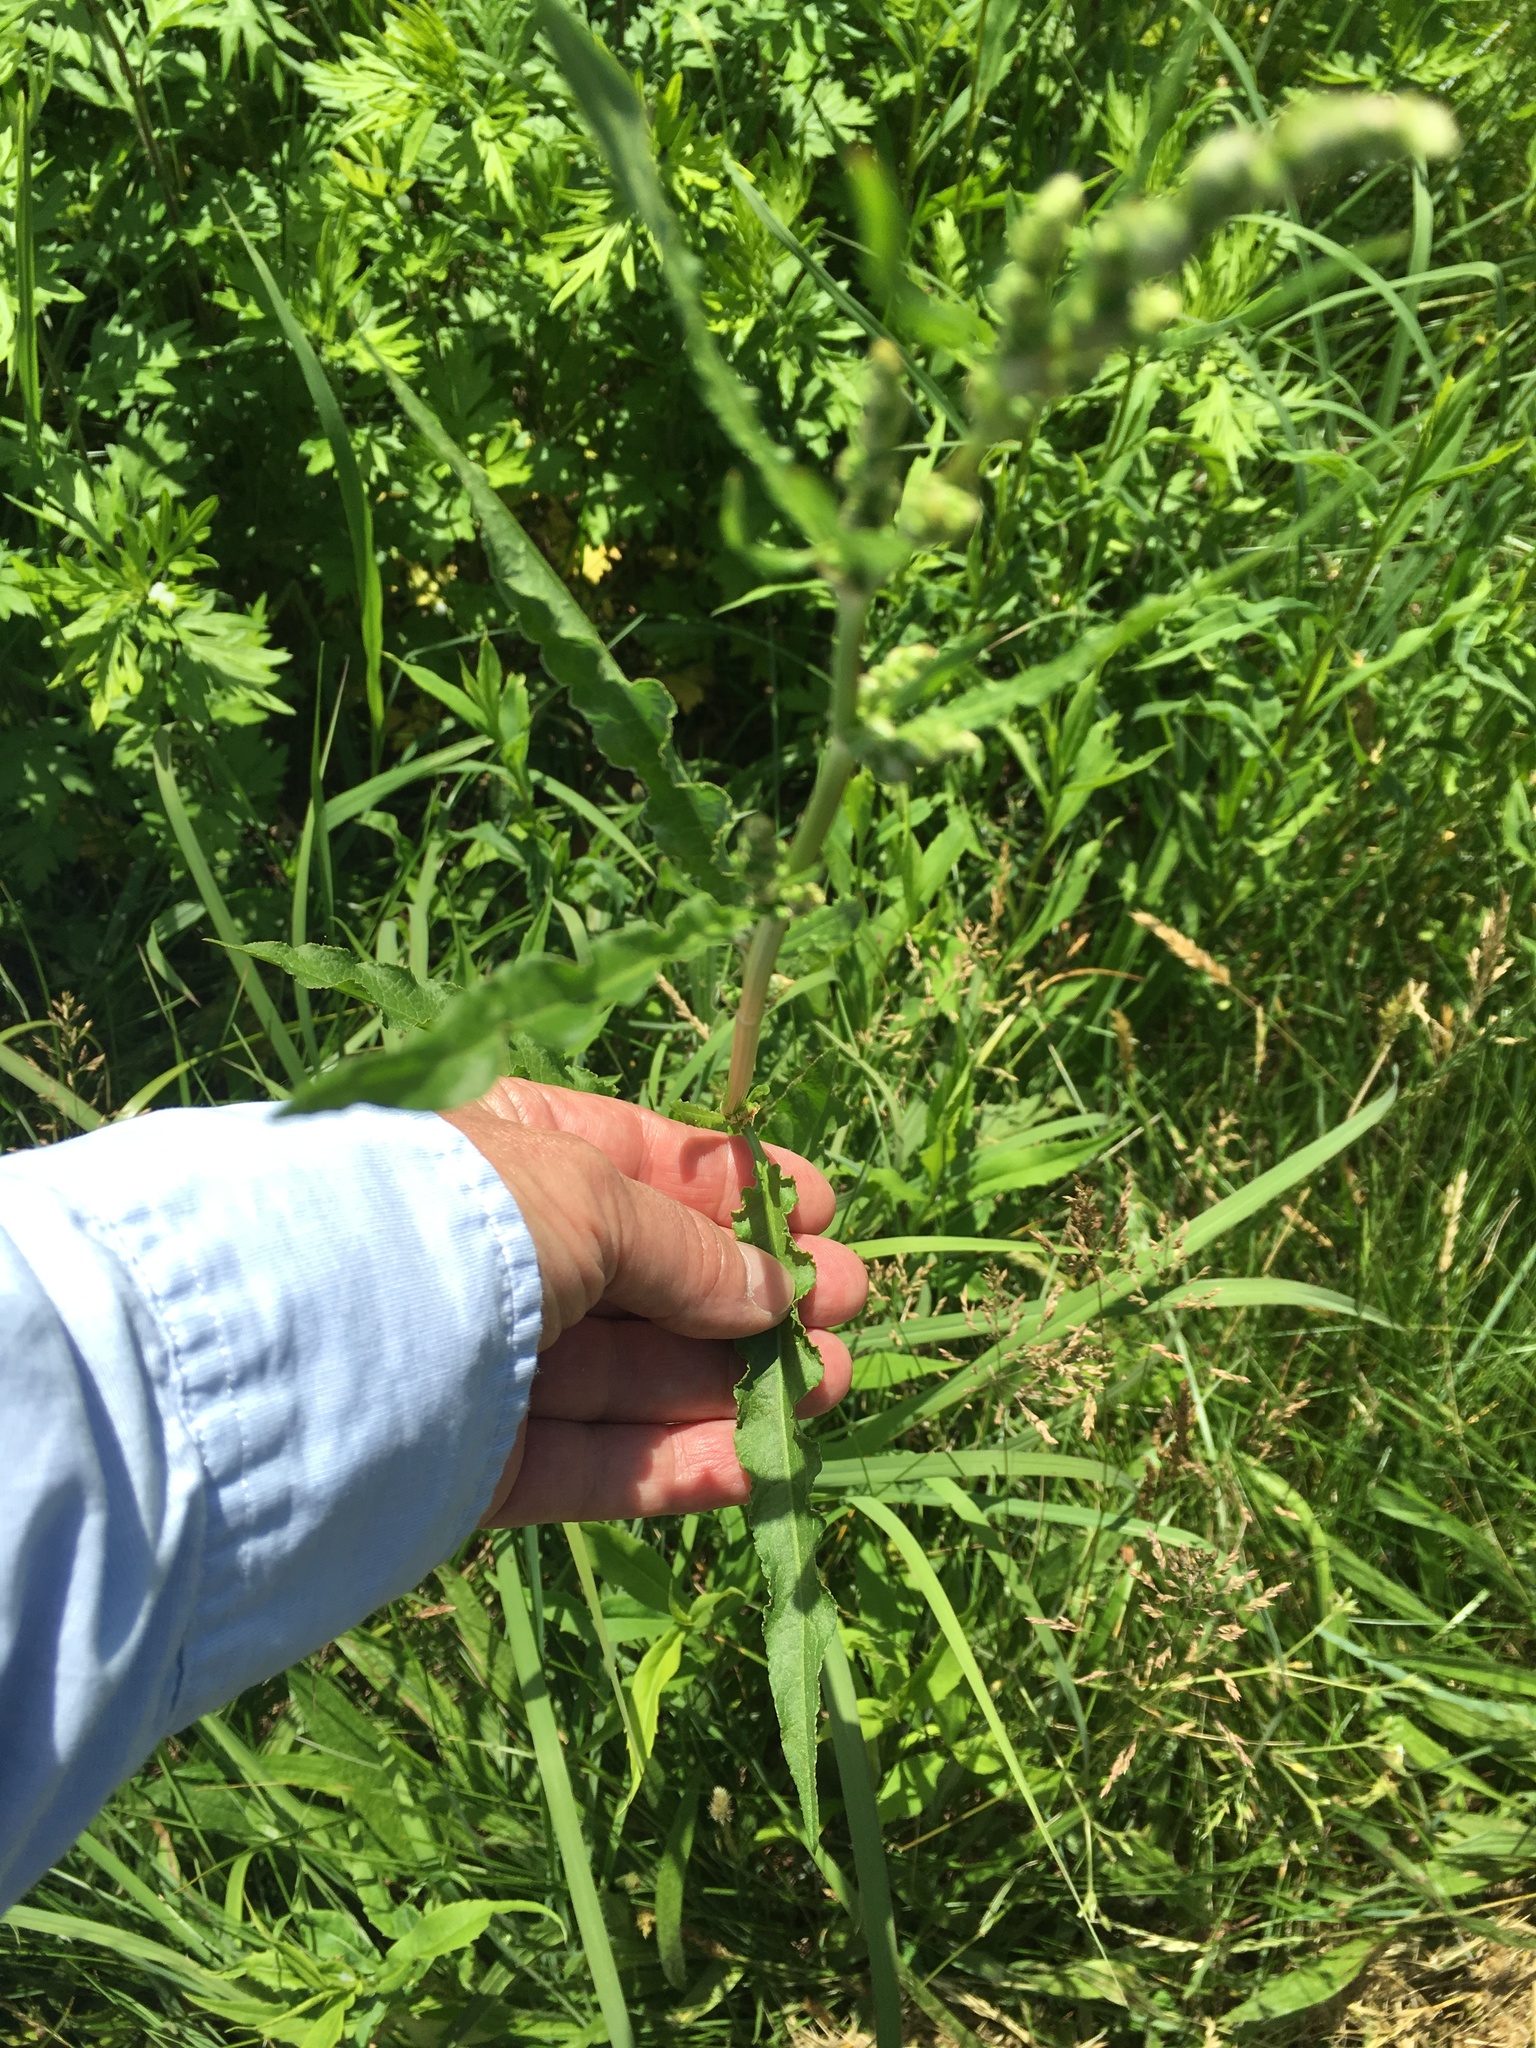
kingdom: Plantae
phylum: Tracheophyta
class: Magnoliopsida
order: Caryophyllales
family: Polygonaceae
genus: Rumex
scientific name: Rumex crispus
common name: Curled dock
